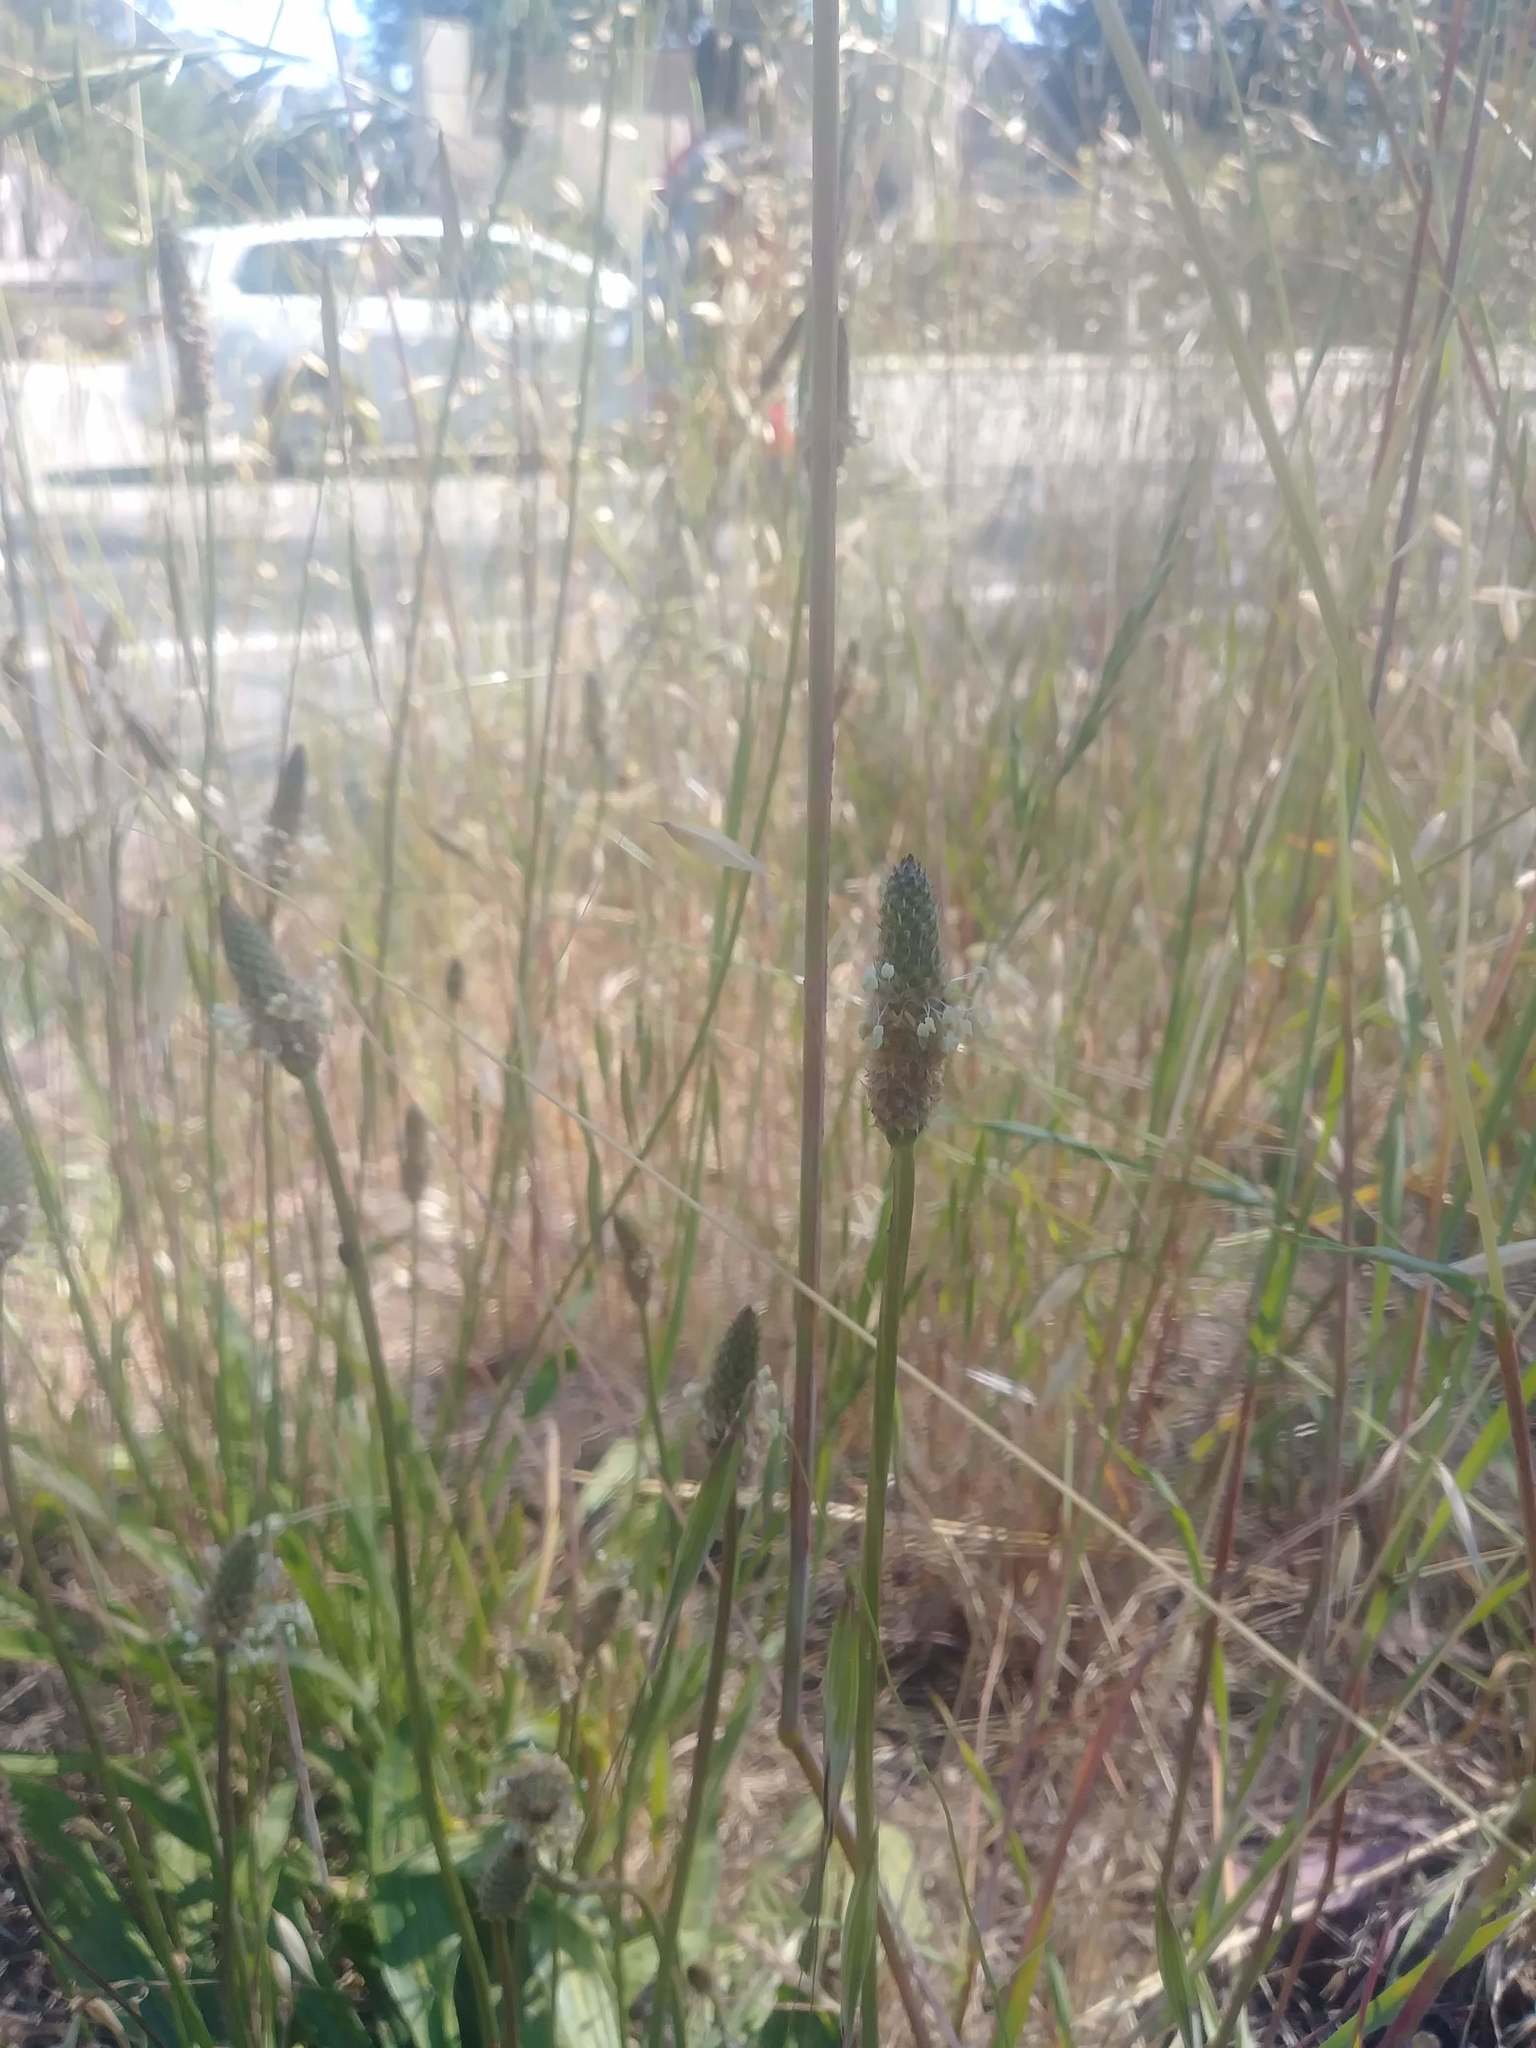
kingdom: Plantae
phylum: Tracheophyta
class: Magnoliopsida
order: Lamiales
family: Plantaginaceae
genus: Plantago
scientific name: Plantago lanceolata
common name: Ribwort plantain
